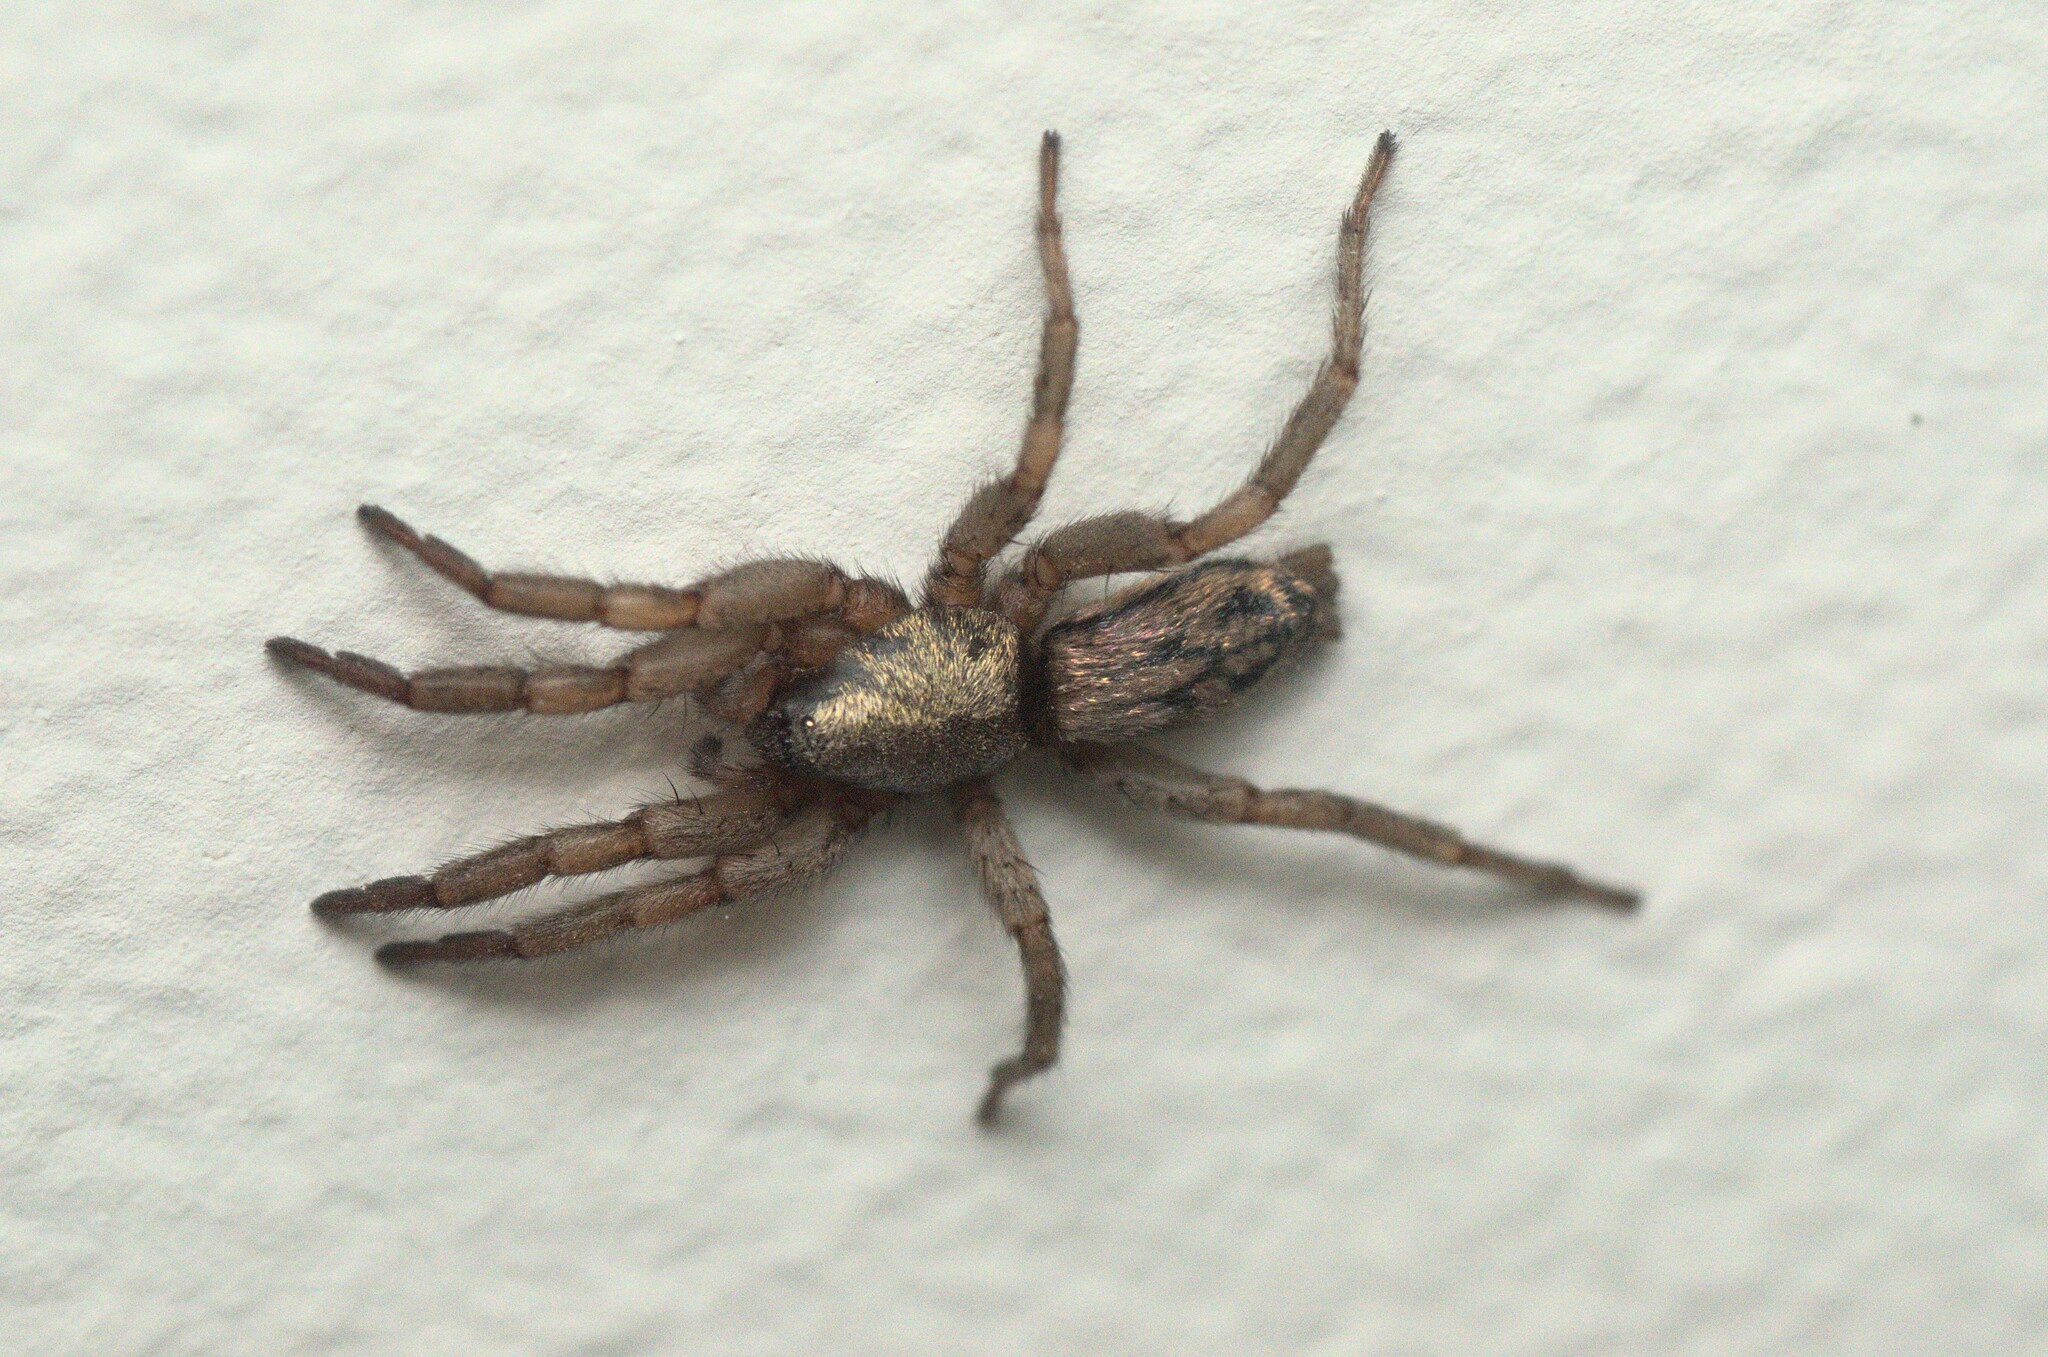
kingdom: Animalia
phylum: Arthropoda
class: Arachnida
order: Araneae
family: Gnaphosidae
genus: Scotophaeus
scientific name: Scotophaeus pretiosus
